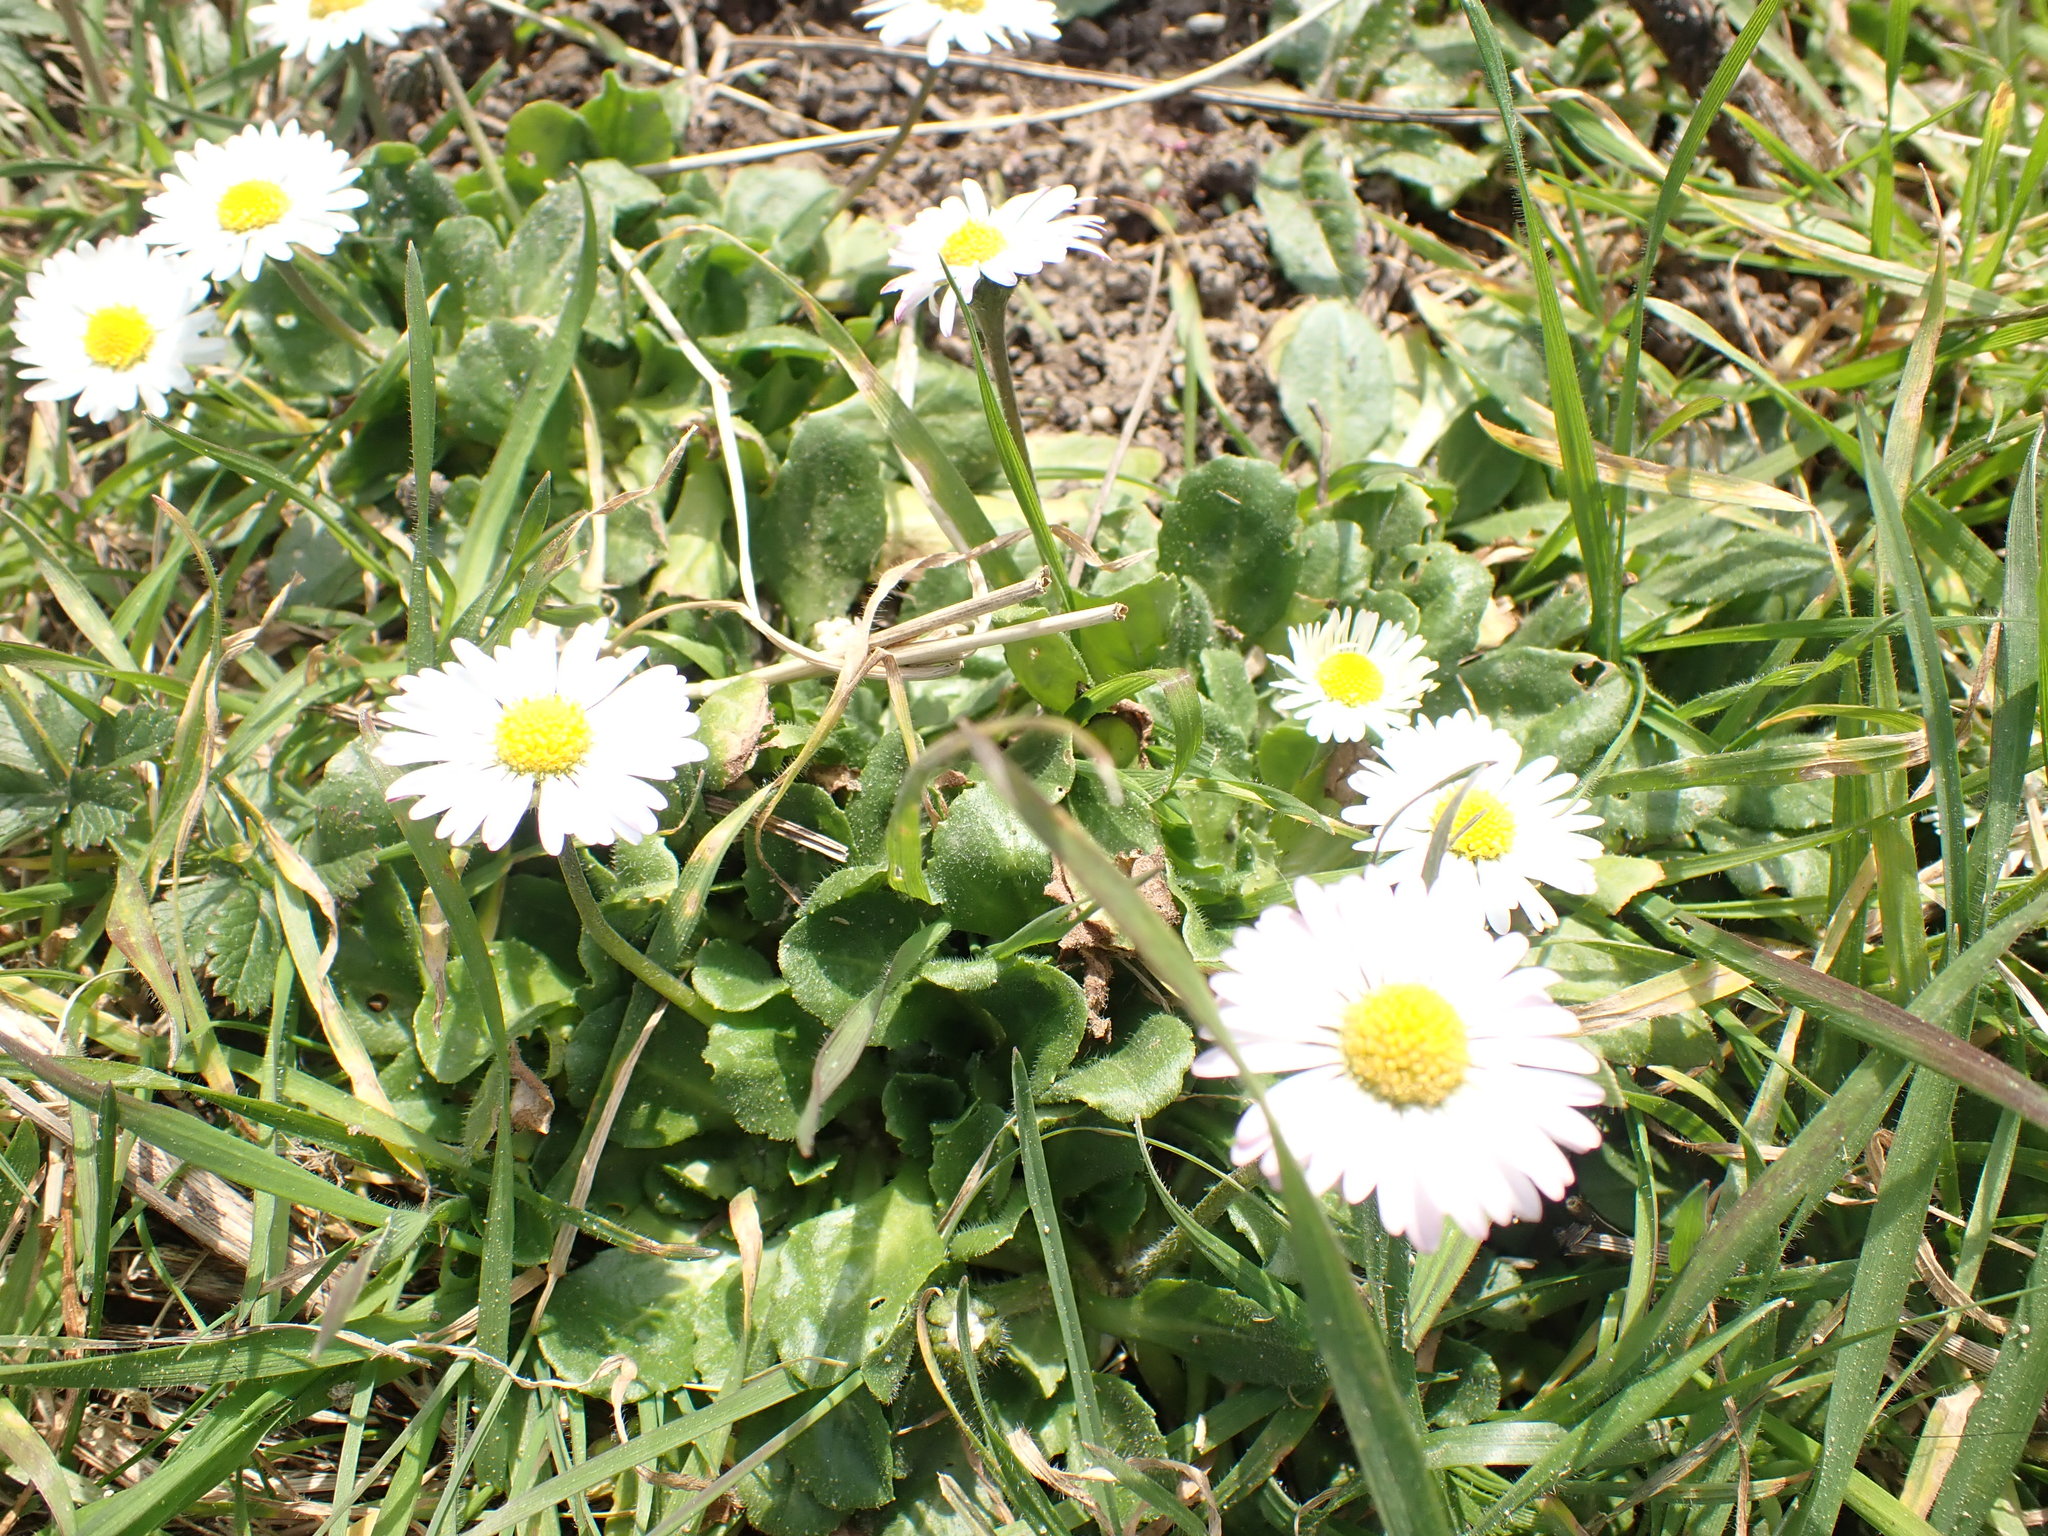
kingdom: Plantae
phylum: Tracheophyta
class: Magnoliopsida
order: Asterales
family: Asteraceae
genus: Bellis
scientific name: Bellis perennis
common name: Lawndaisy
